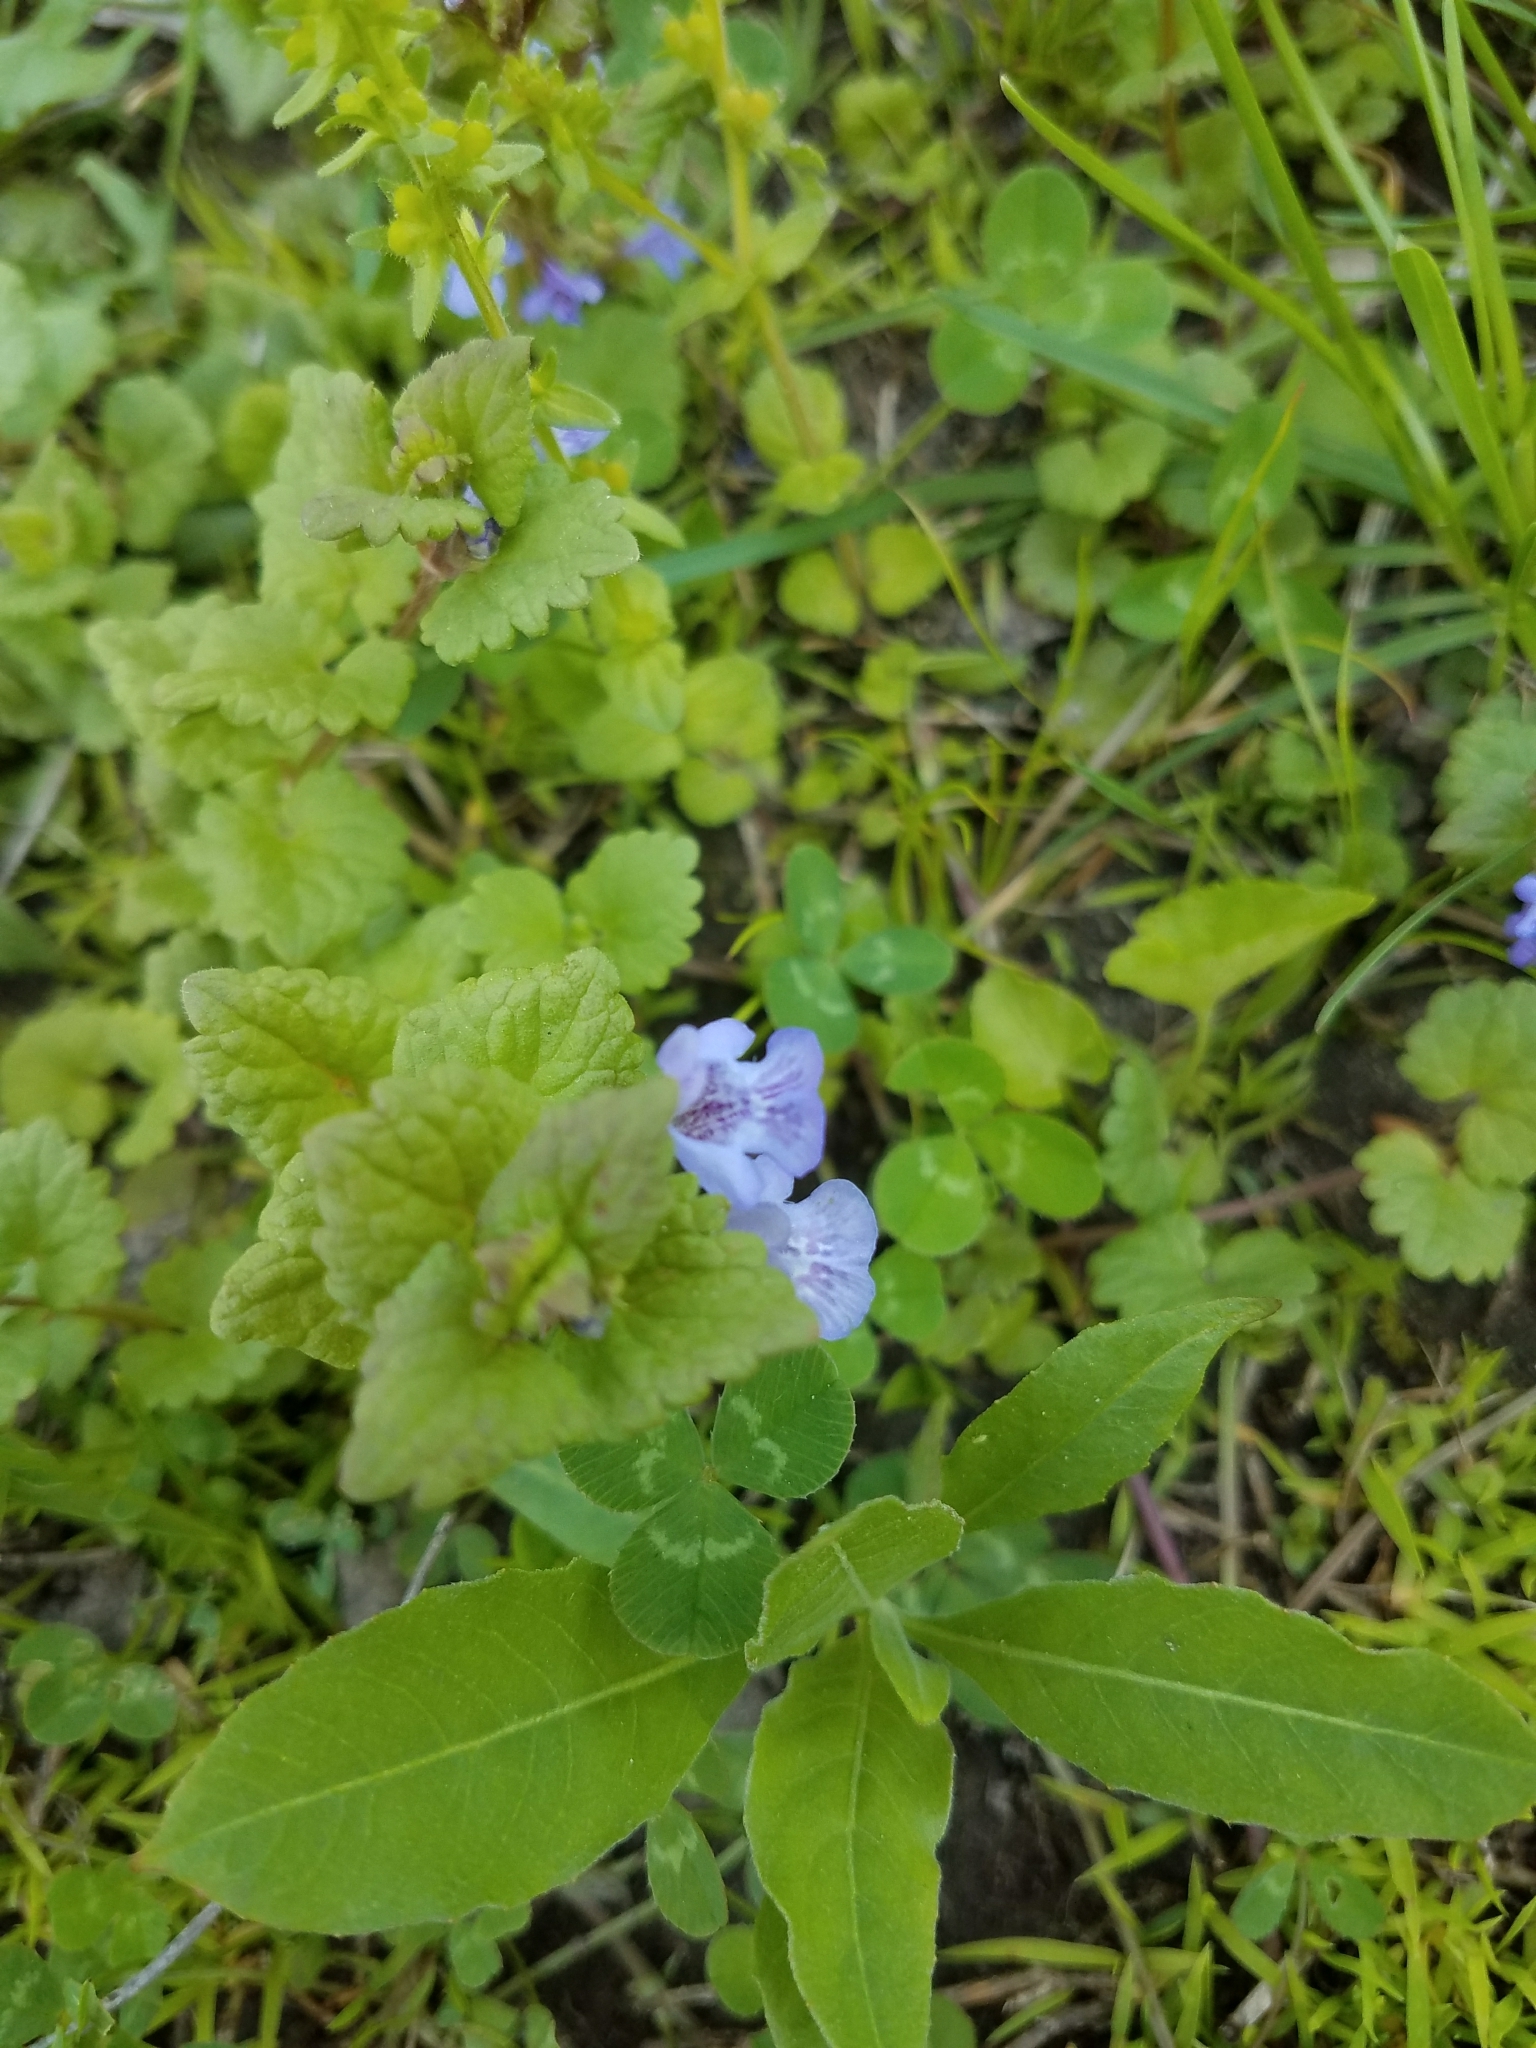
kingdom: Plantae
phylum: Tracheophyta
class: Magnoliopsida
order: Lamiales
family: Lamiaceae
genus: Glechoma
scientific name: Glechoma hederacea
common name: Ground ivy
